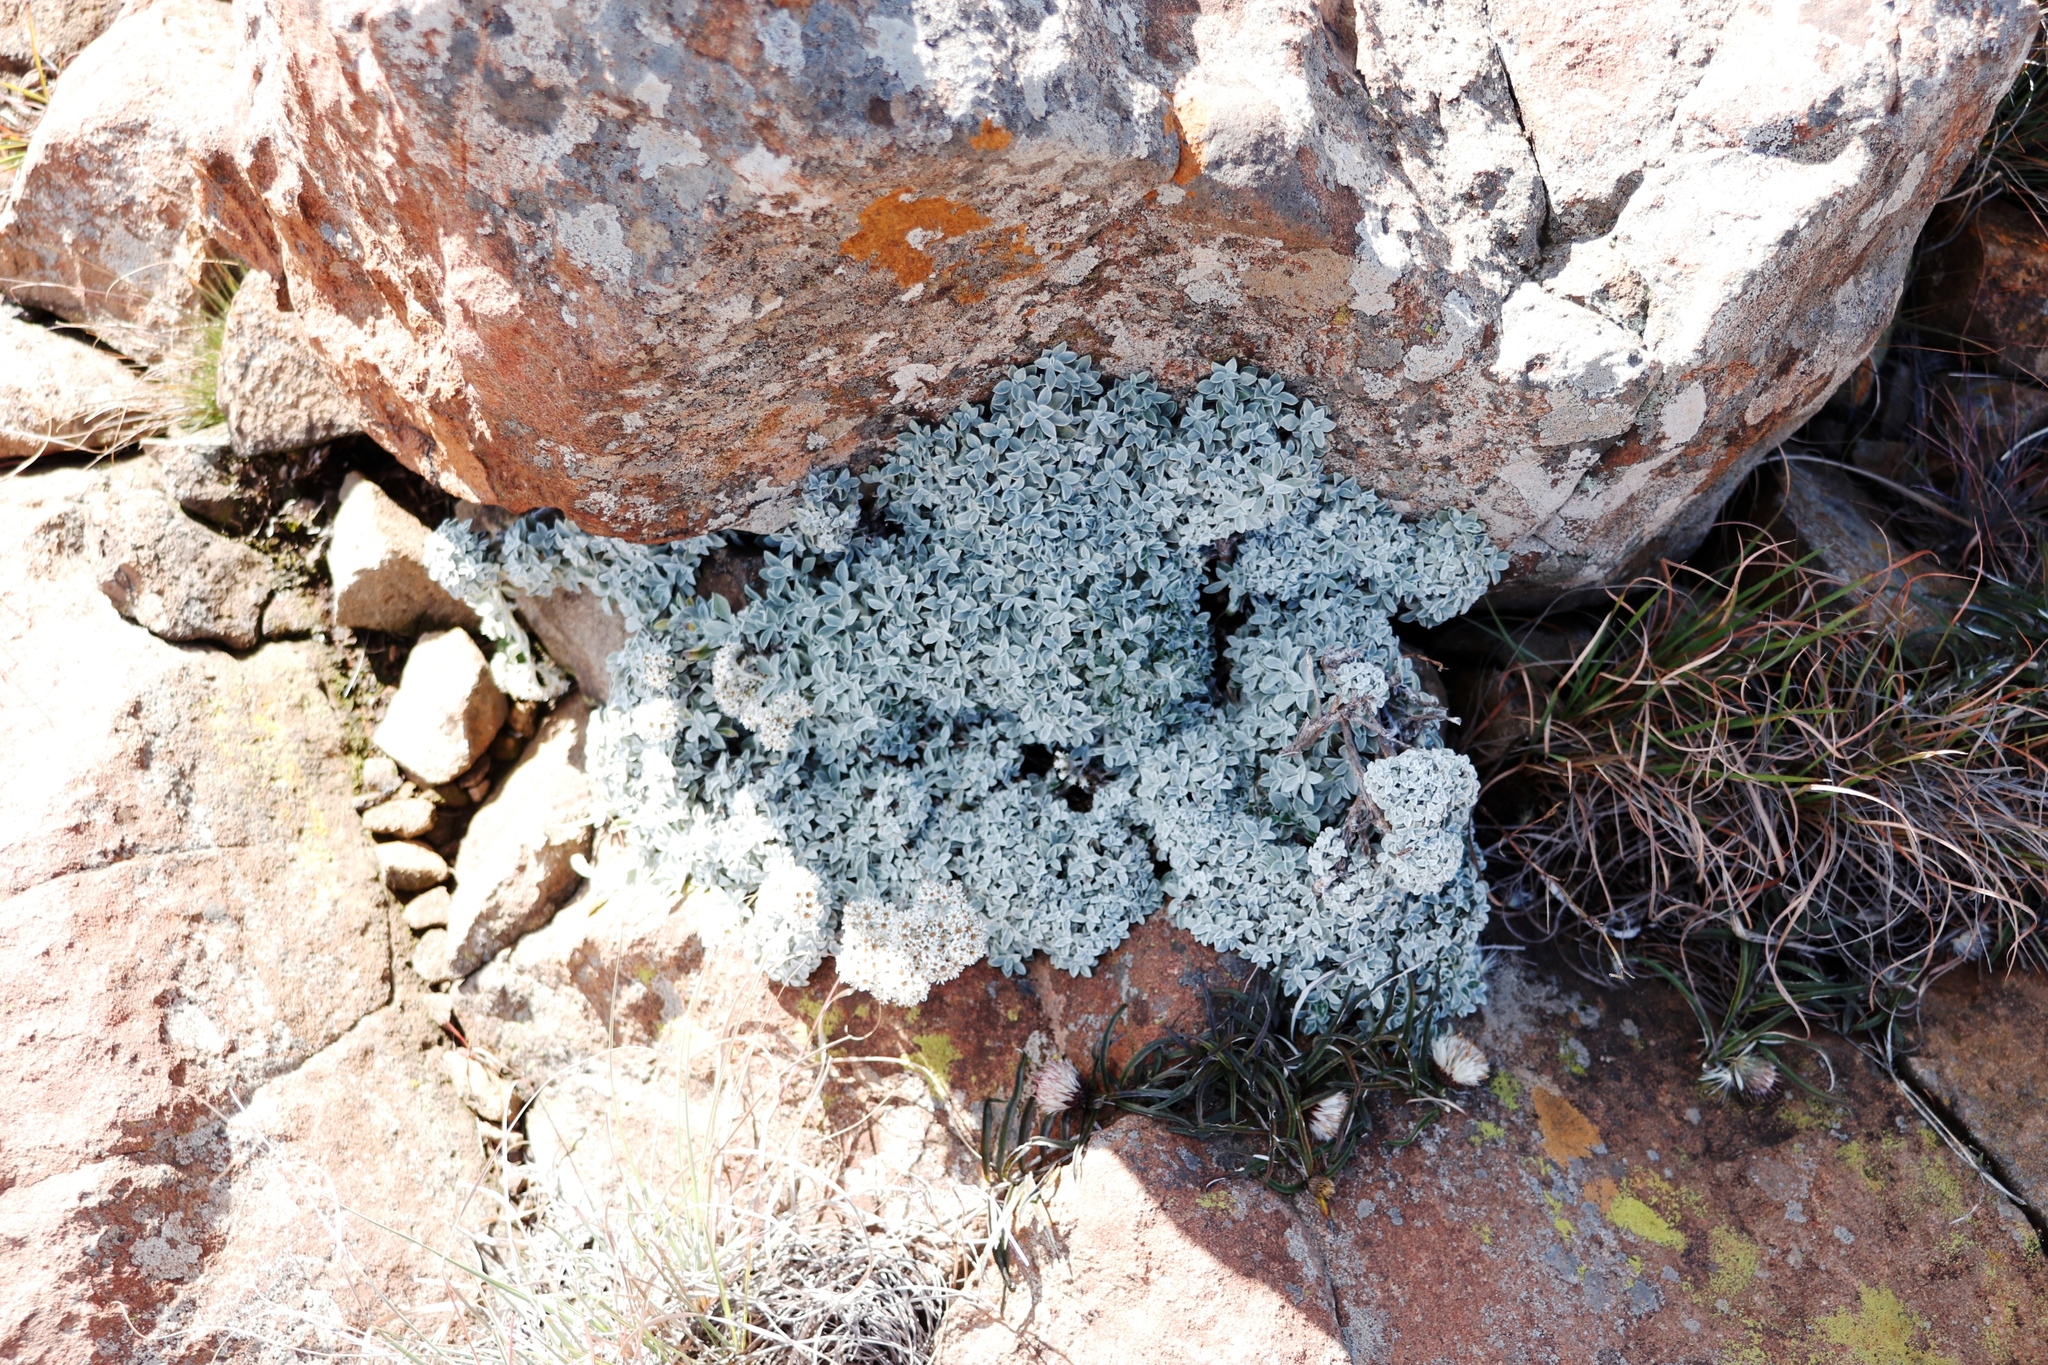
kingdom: Plantae
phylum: Tracheophyta
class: Magnoliopsida
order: Asterales
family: Asteraceae
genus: Dicoma
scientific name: Dicoma anomala
